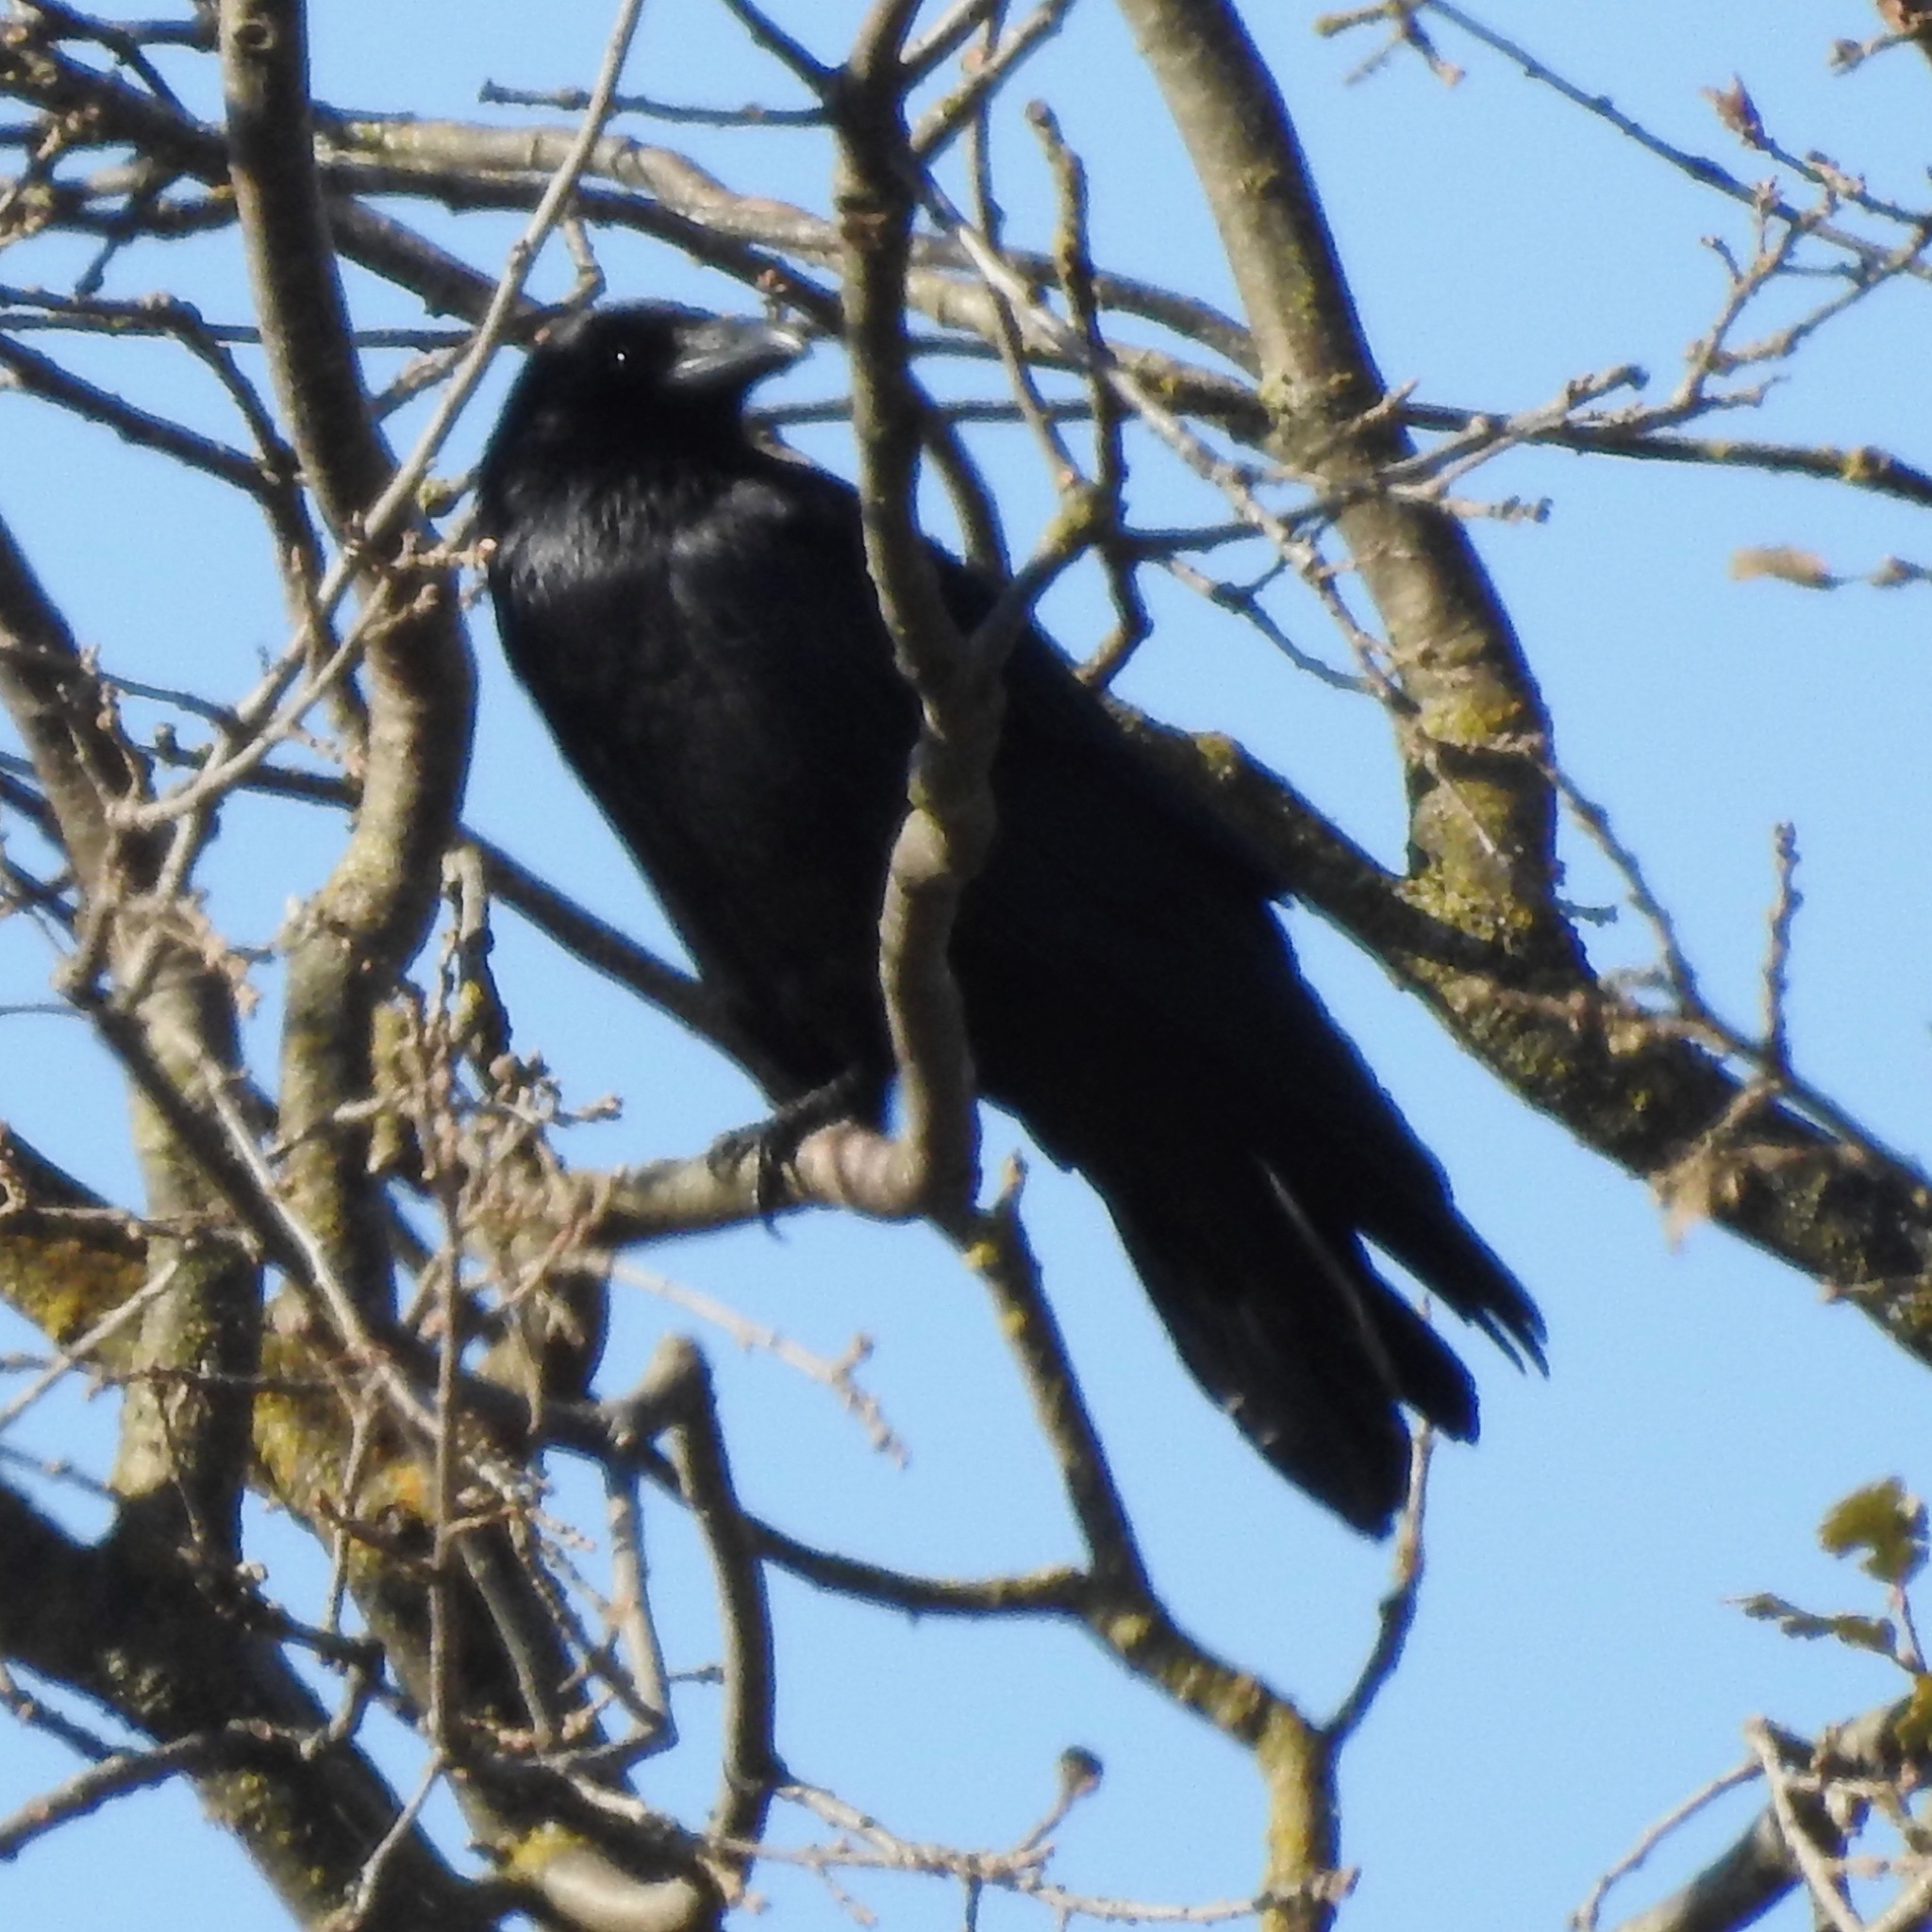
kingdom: Animalia
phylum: Chordata
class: Aves
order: Passeriformes
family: Corvidae
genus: Corvus
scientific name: Corvus corax
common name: Common raven
